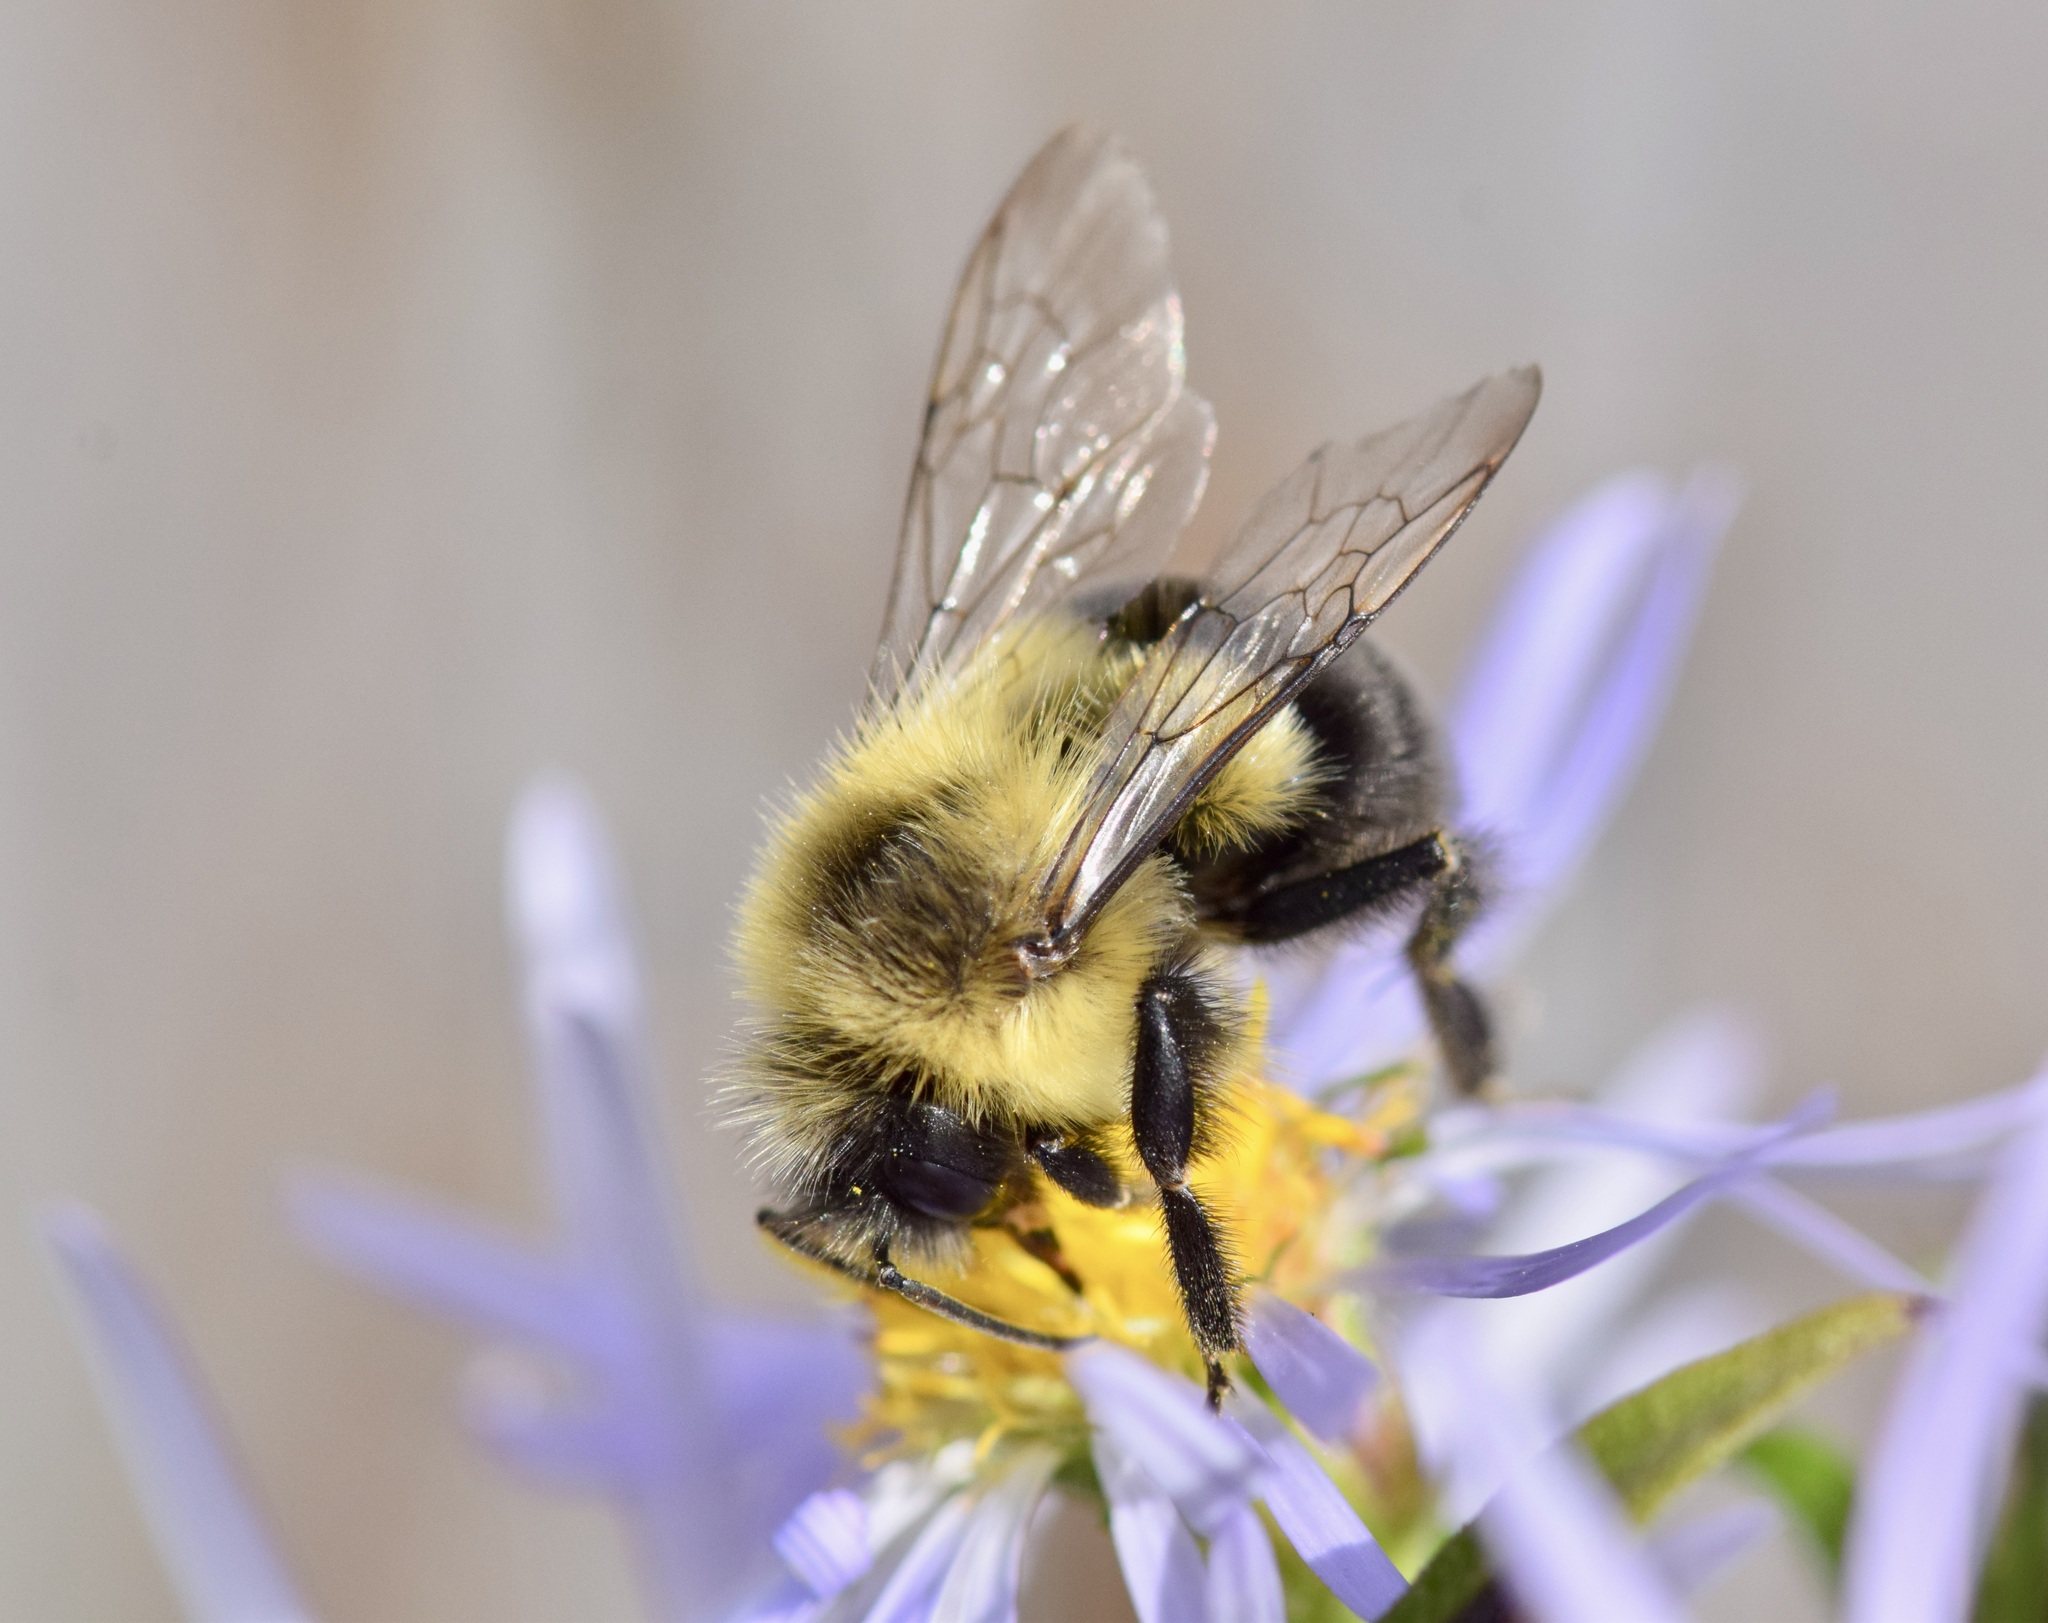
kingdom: Animalia
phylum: Arthropoda
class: Insecta
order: Hymenoptera
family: Apidae
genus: Bombus
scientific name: Bombus impatiens
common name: Common eastern bumble bee
